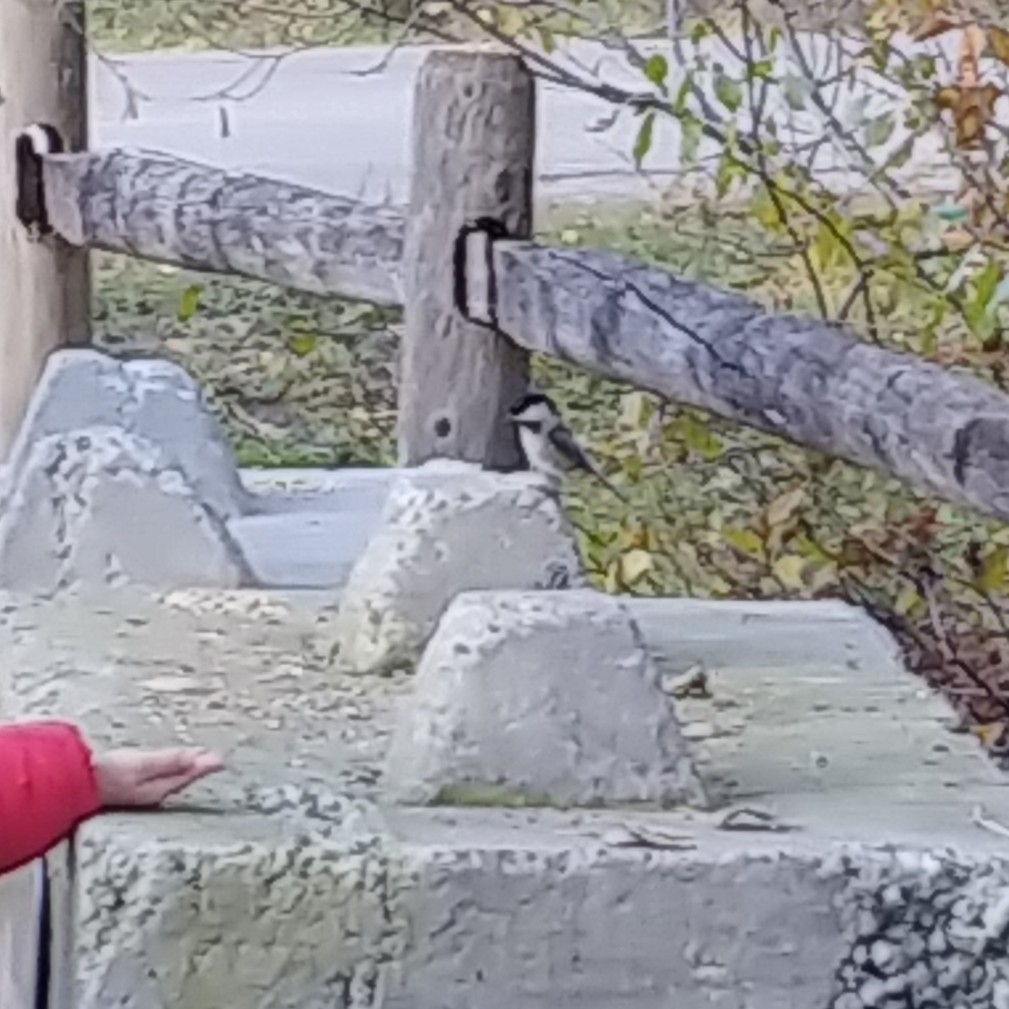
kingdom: Animalia
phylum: Chordata
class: Aves
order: Passeriformes
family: Paridae
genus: Poecile
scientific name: Poecile atricapillus
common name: Black-capped chickadee
